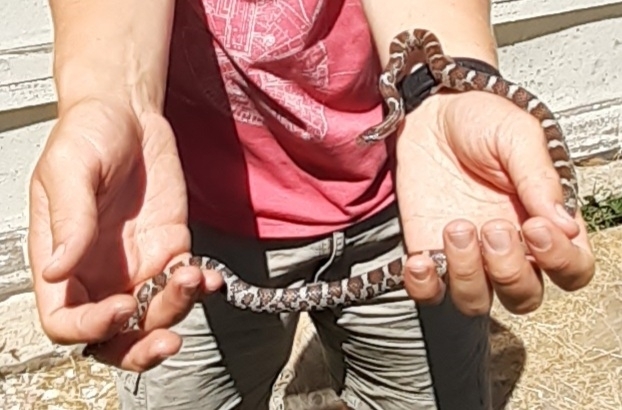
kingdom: Animalia
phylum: Chordata
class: Squamata
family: Colubridae
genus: Lampropeltis
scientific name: Lampropeltis triangulum
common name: Eastern milksnake
